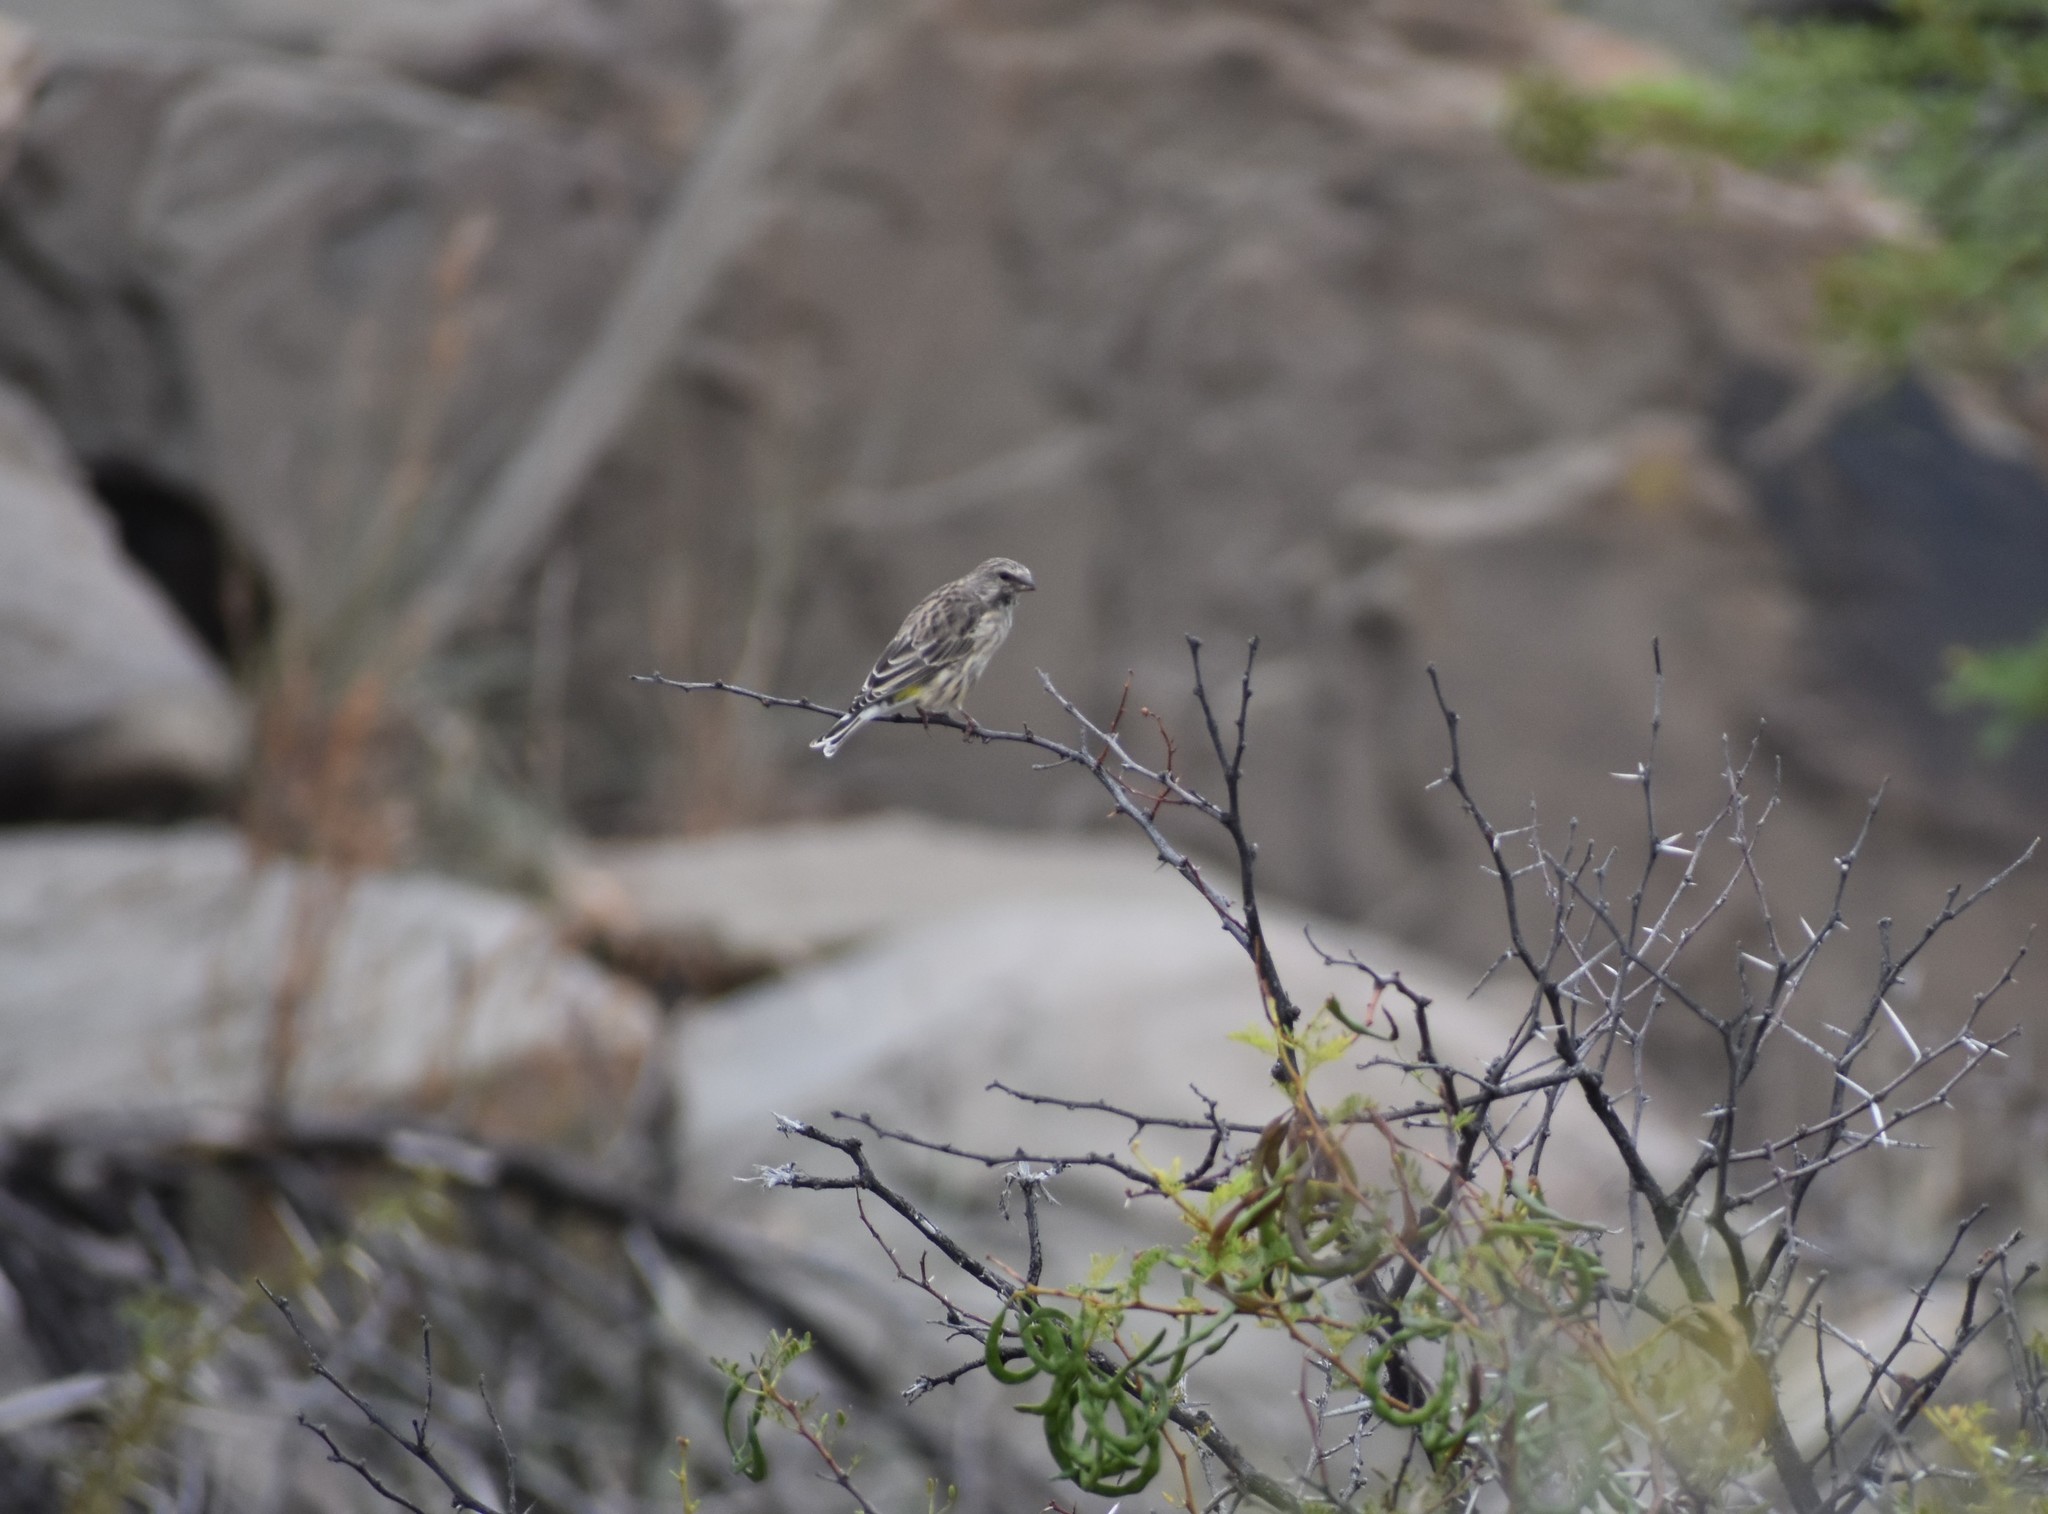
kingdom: Animalia
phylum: Chordata
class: Aves
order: Passeriformes
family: Fringillidae
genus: Crithagra
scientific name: Crithagra atrogularis
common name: Black-throated canary
